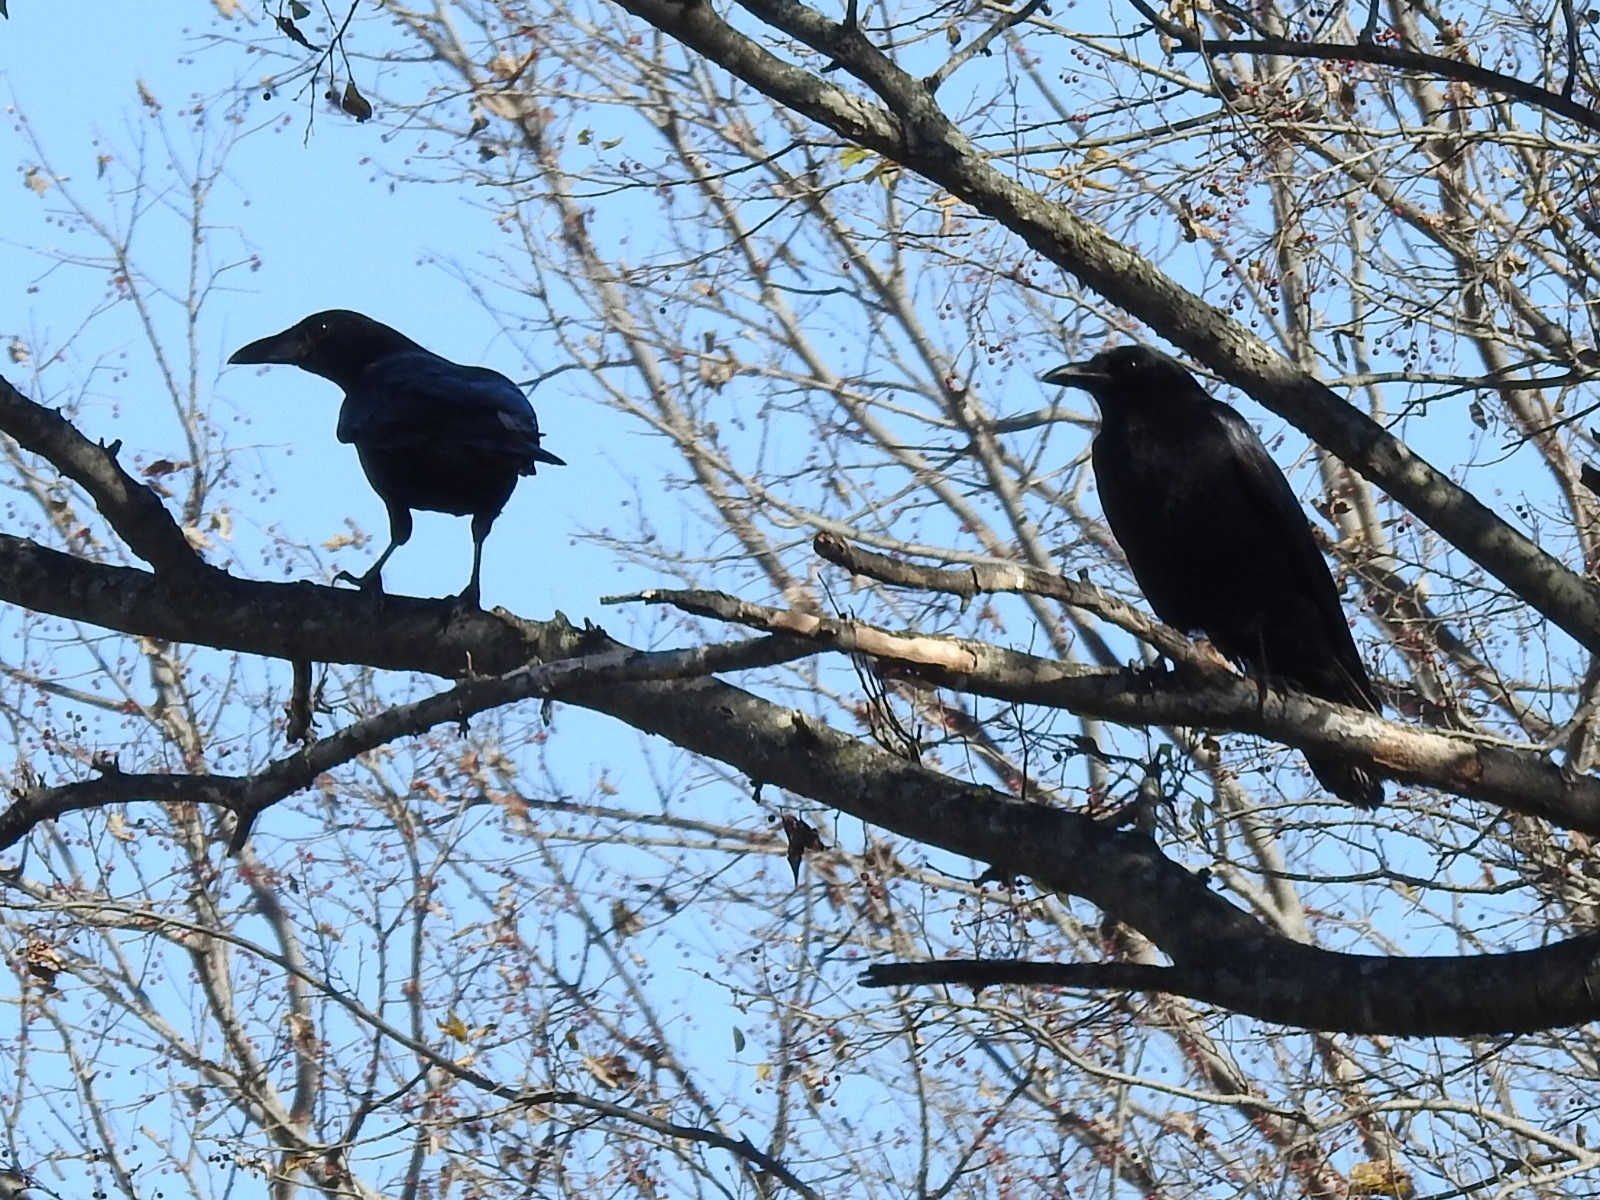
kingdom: Animalia
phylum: Chordata
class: Aves
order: Passeriformes
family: Corvidae
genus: Corvus
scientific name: Corvus brachyrhynchos
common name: American crow
